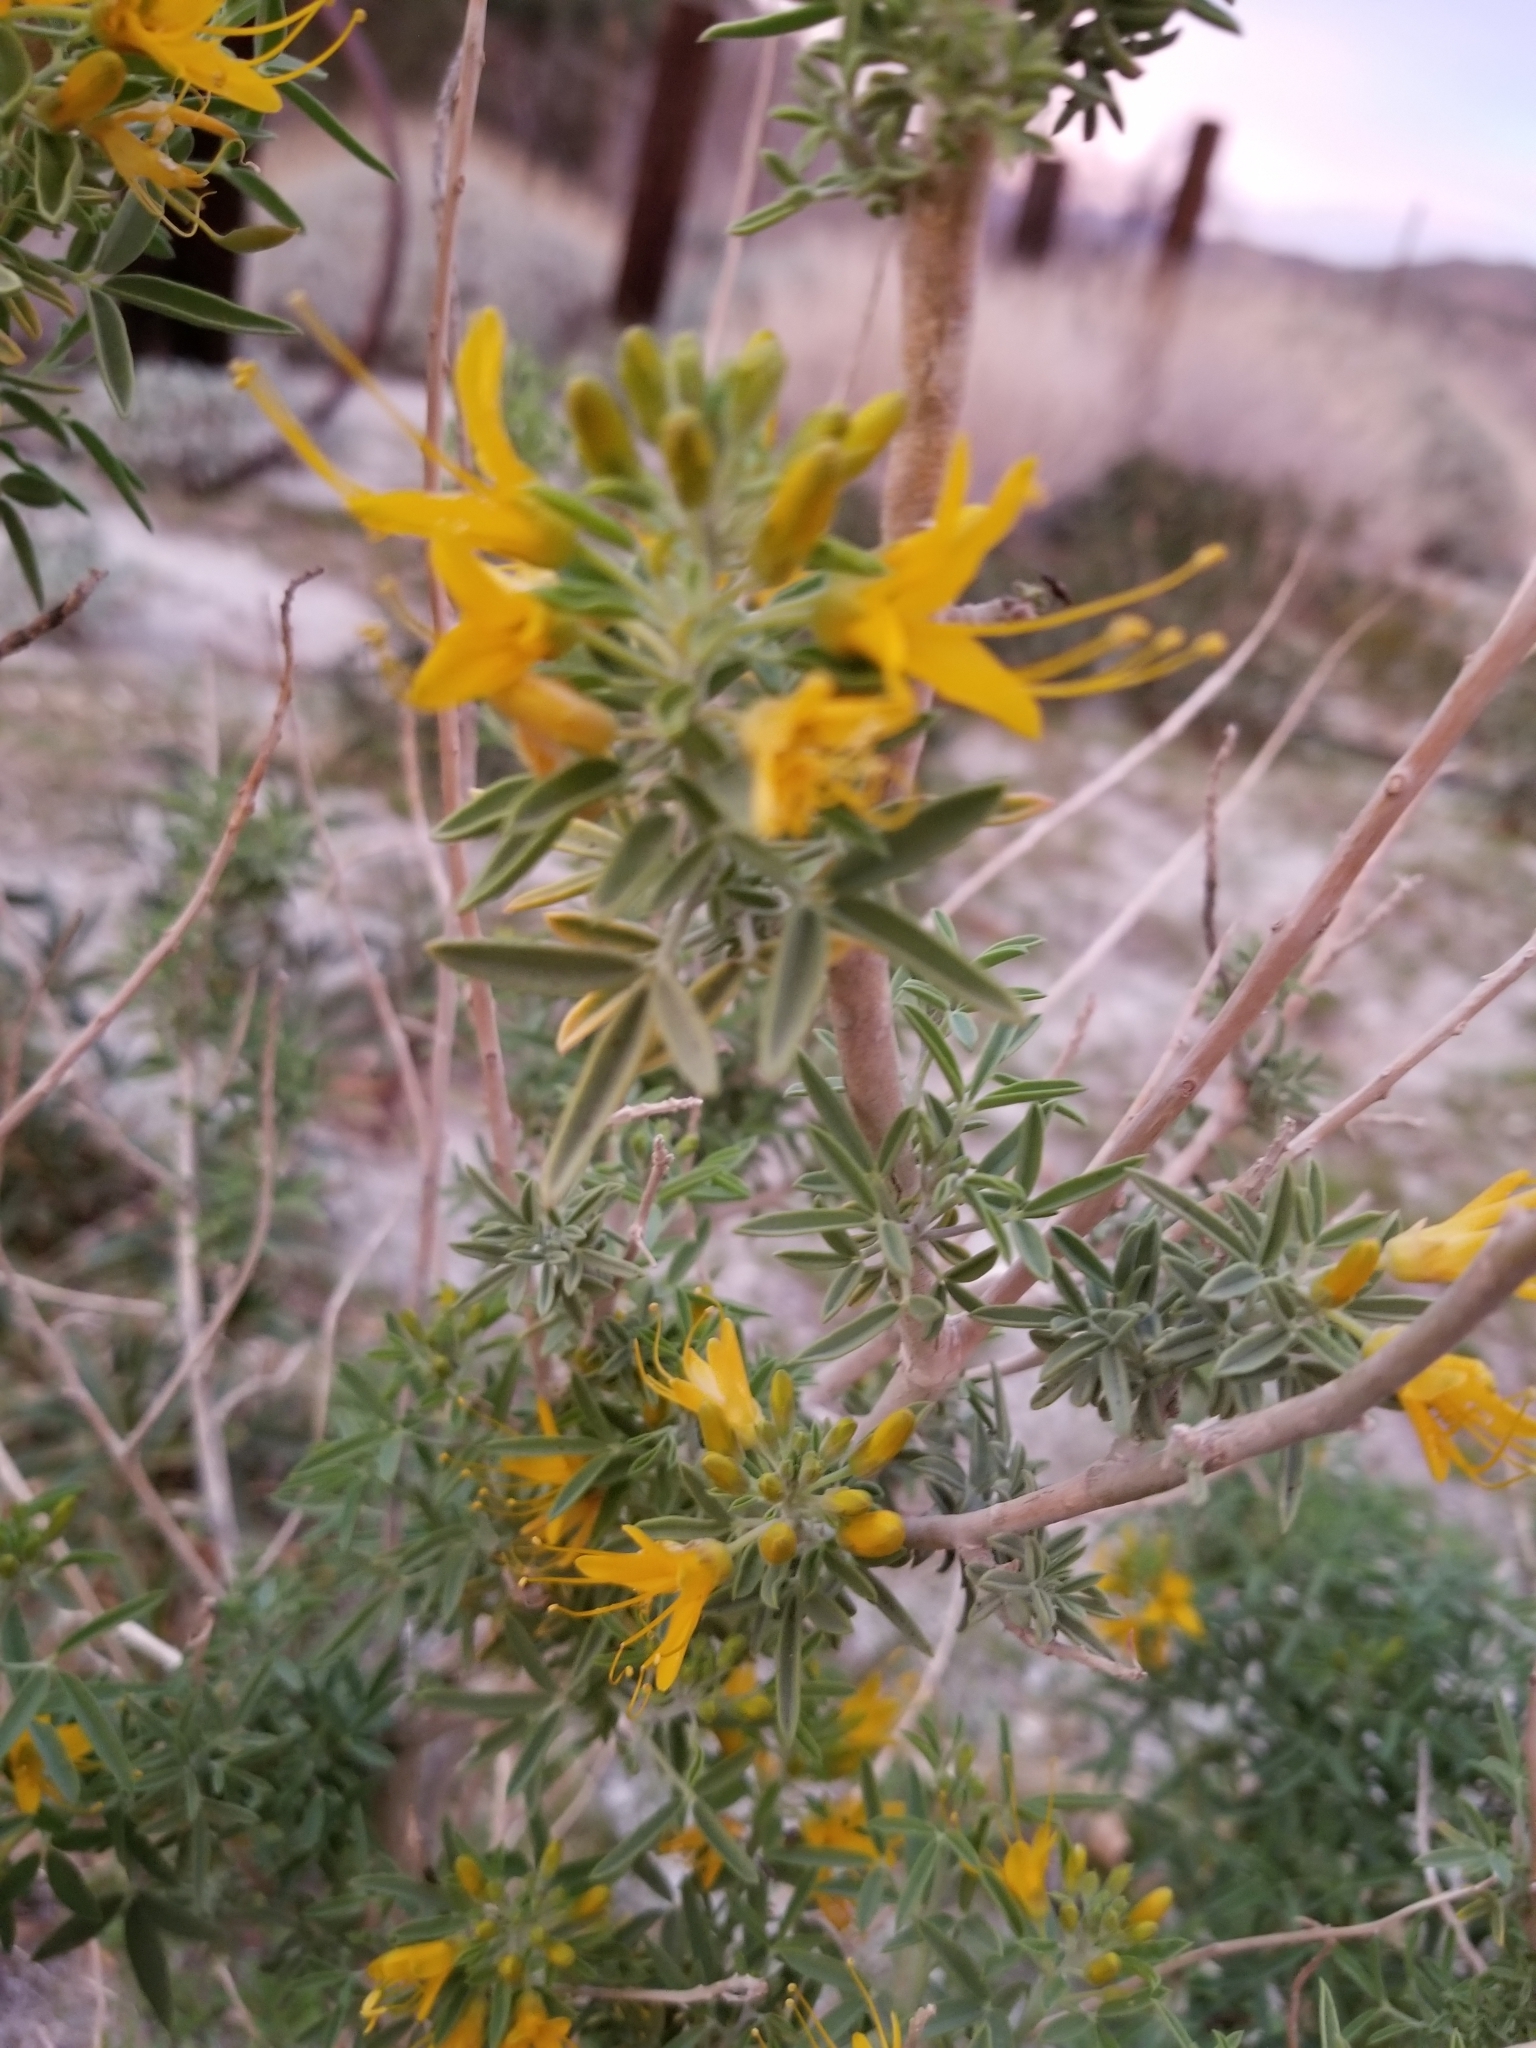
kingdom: Plantae
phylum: Tracheophyta
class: Magnoliopsida
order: Brassicales
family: Cleomaceae
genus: Cleomella
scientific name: Cleomella arborea
